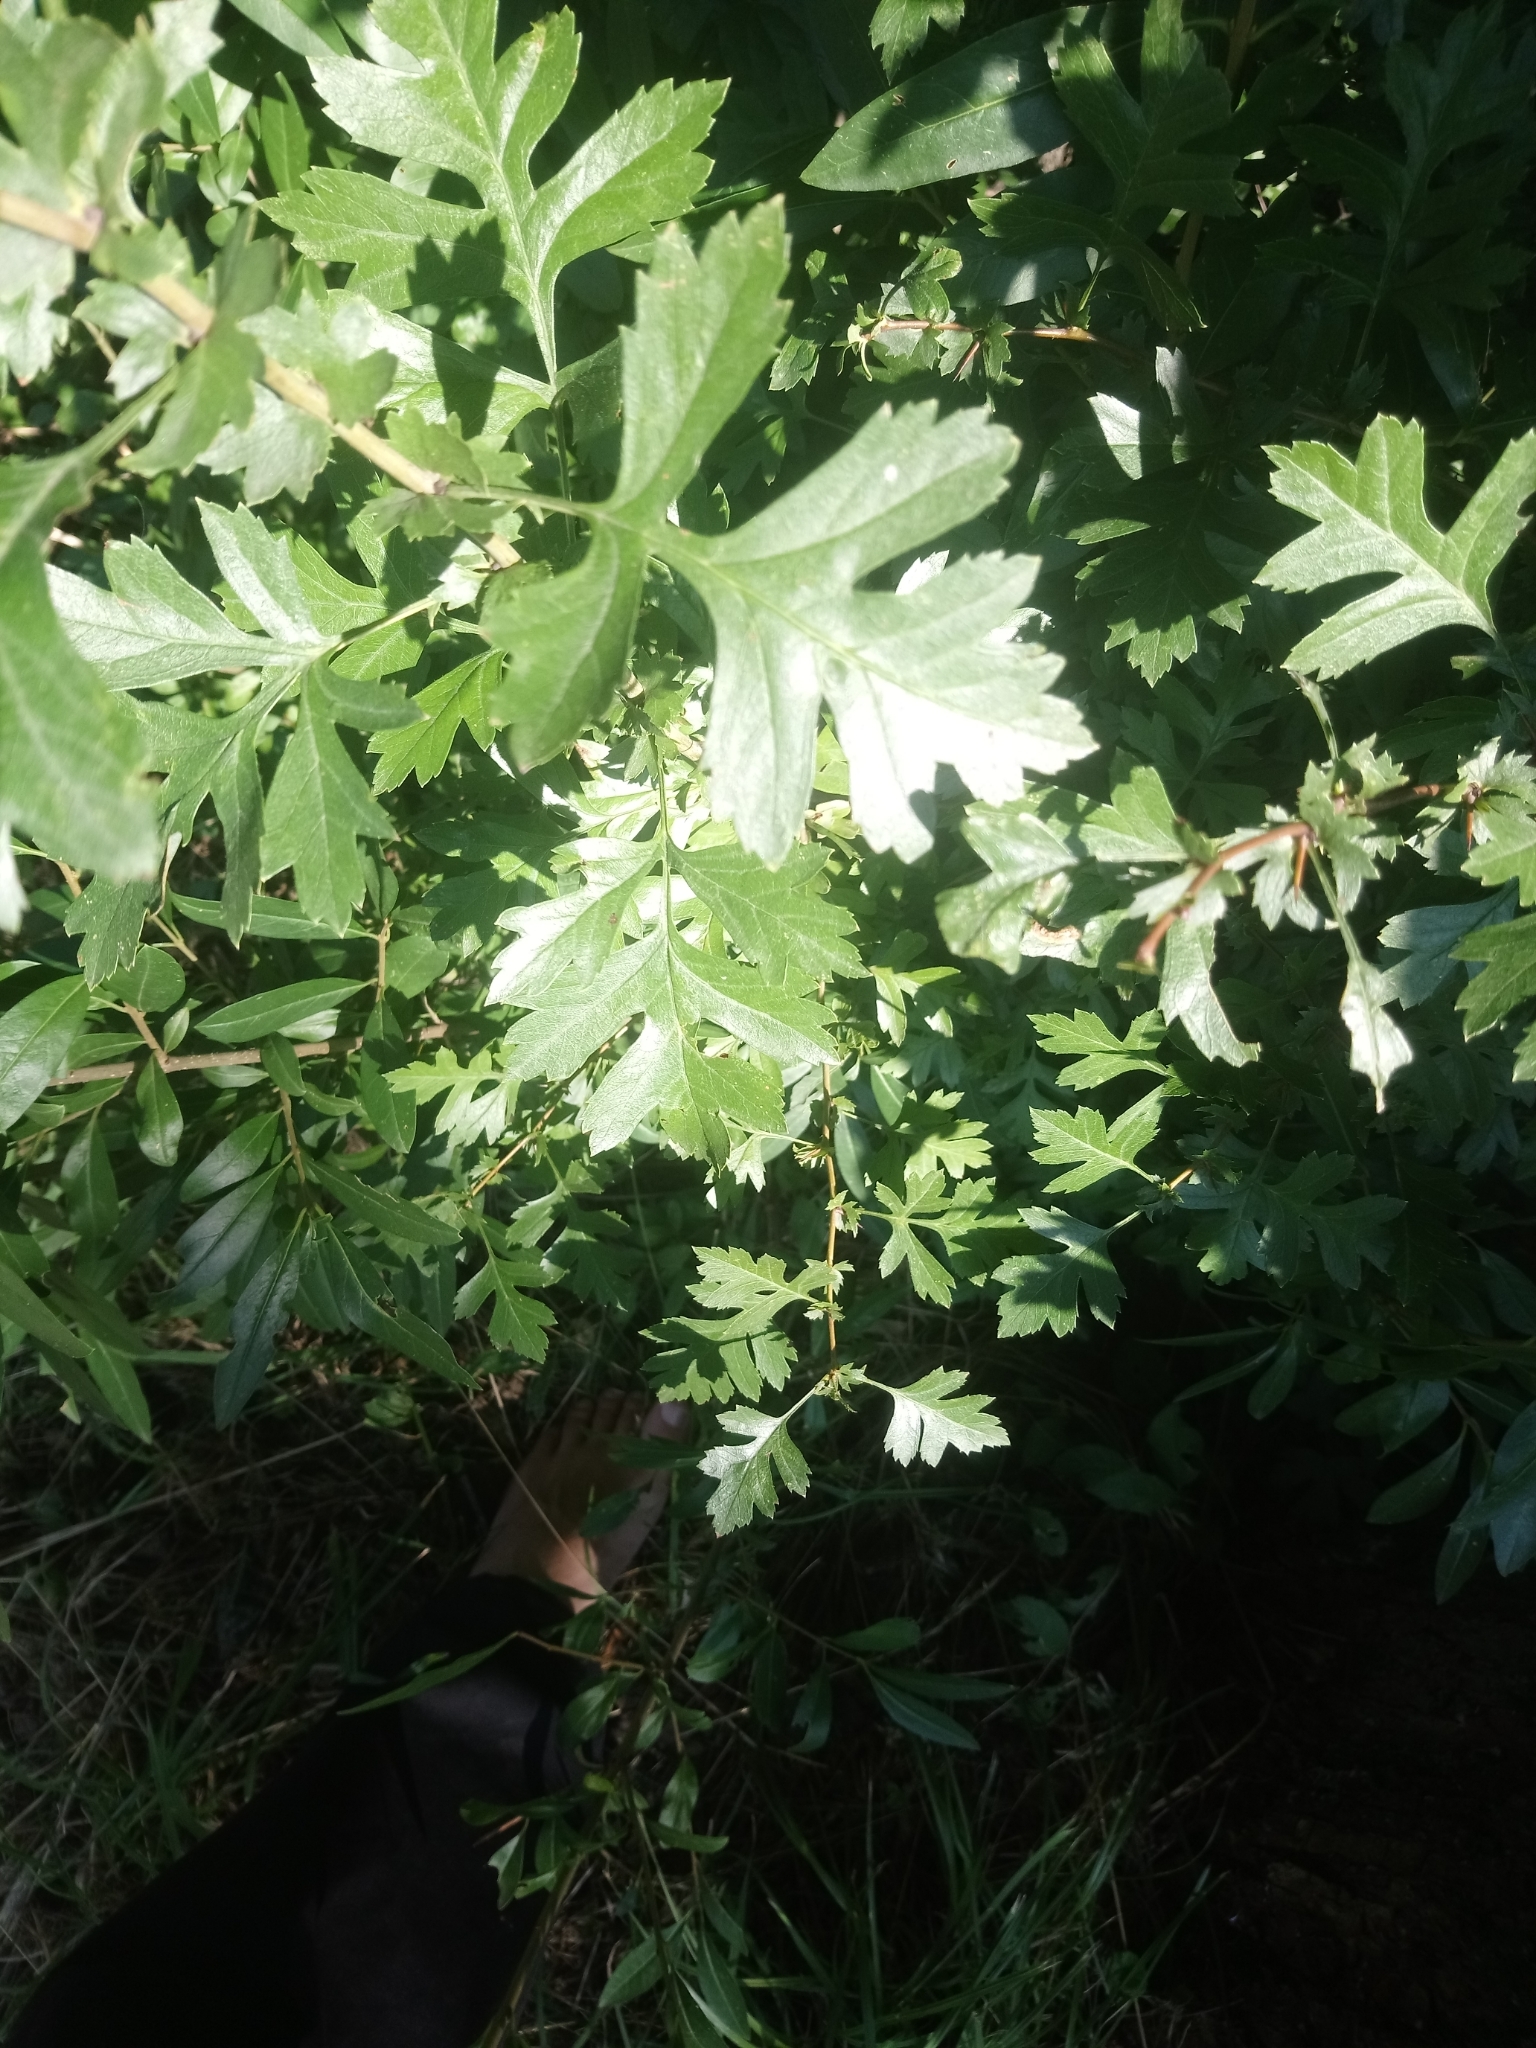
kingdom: Plantae
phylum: Tracheophyta
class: Magnoliopsida
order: Rosales
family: Rosaceae
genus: Crataegus
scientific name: Crataegus monogyna
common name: Hawthorn
